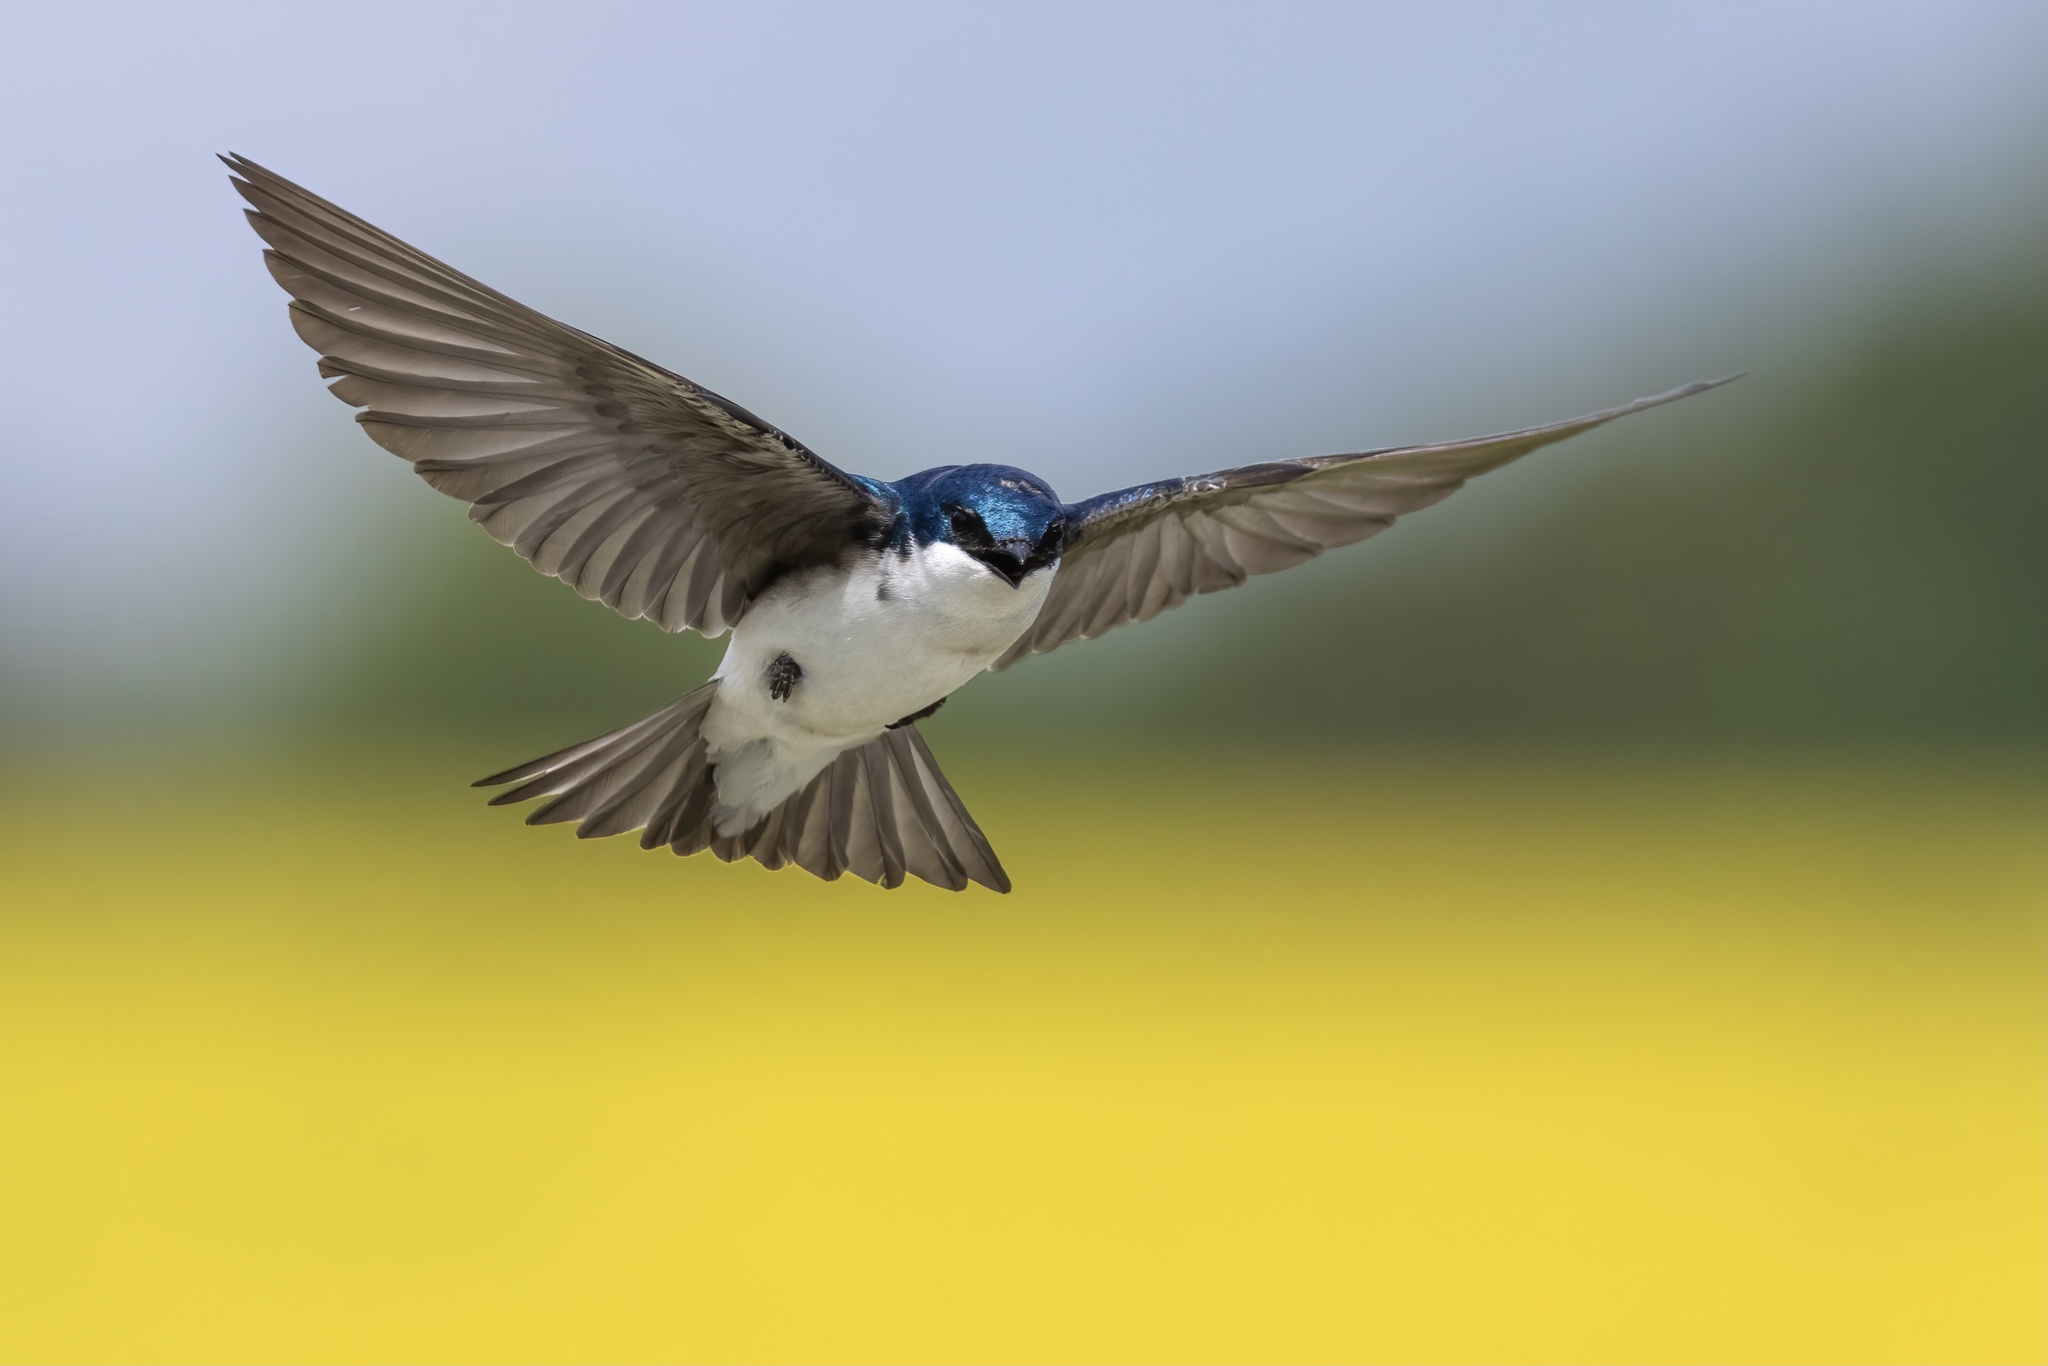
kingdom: Animalia
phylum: Chordata
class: Aves
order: Passeriformes
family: Hirundinidae
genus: Tachycineta
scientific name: Tachycineta bicolor
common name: Tree swallow
